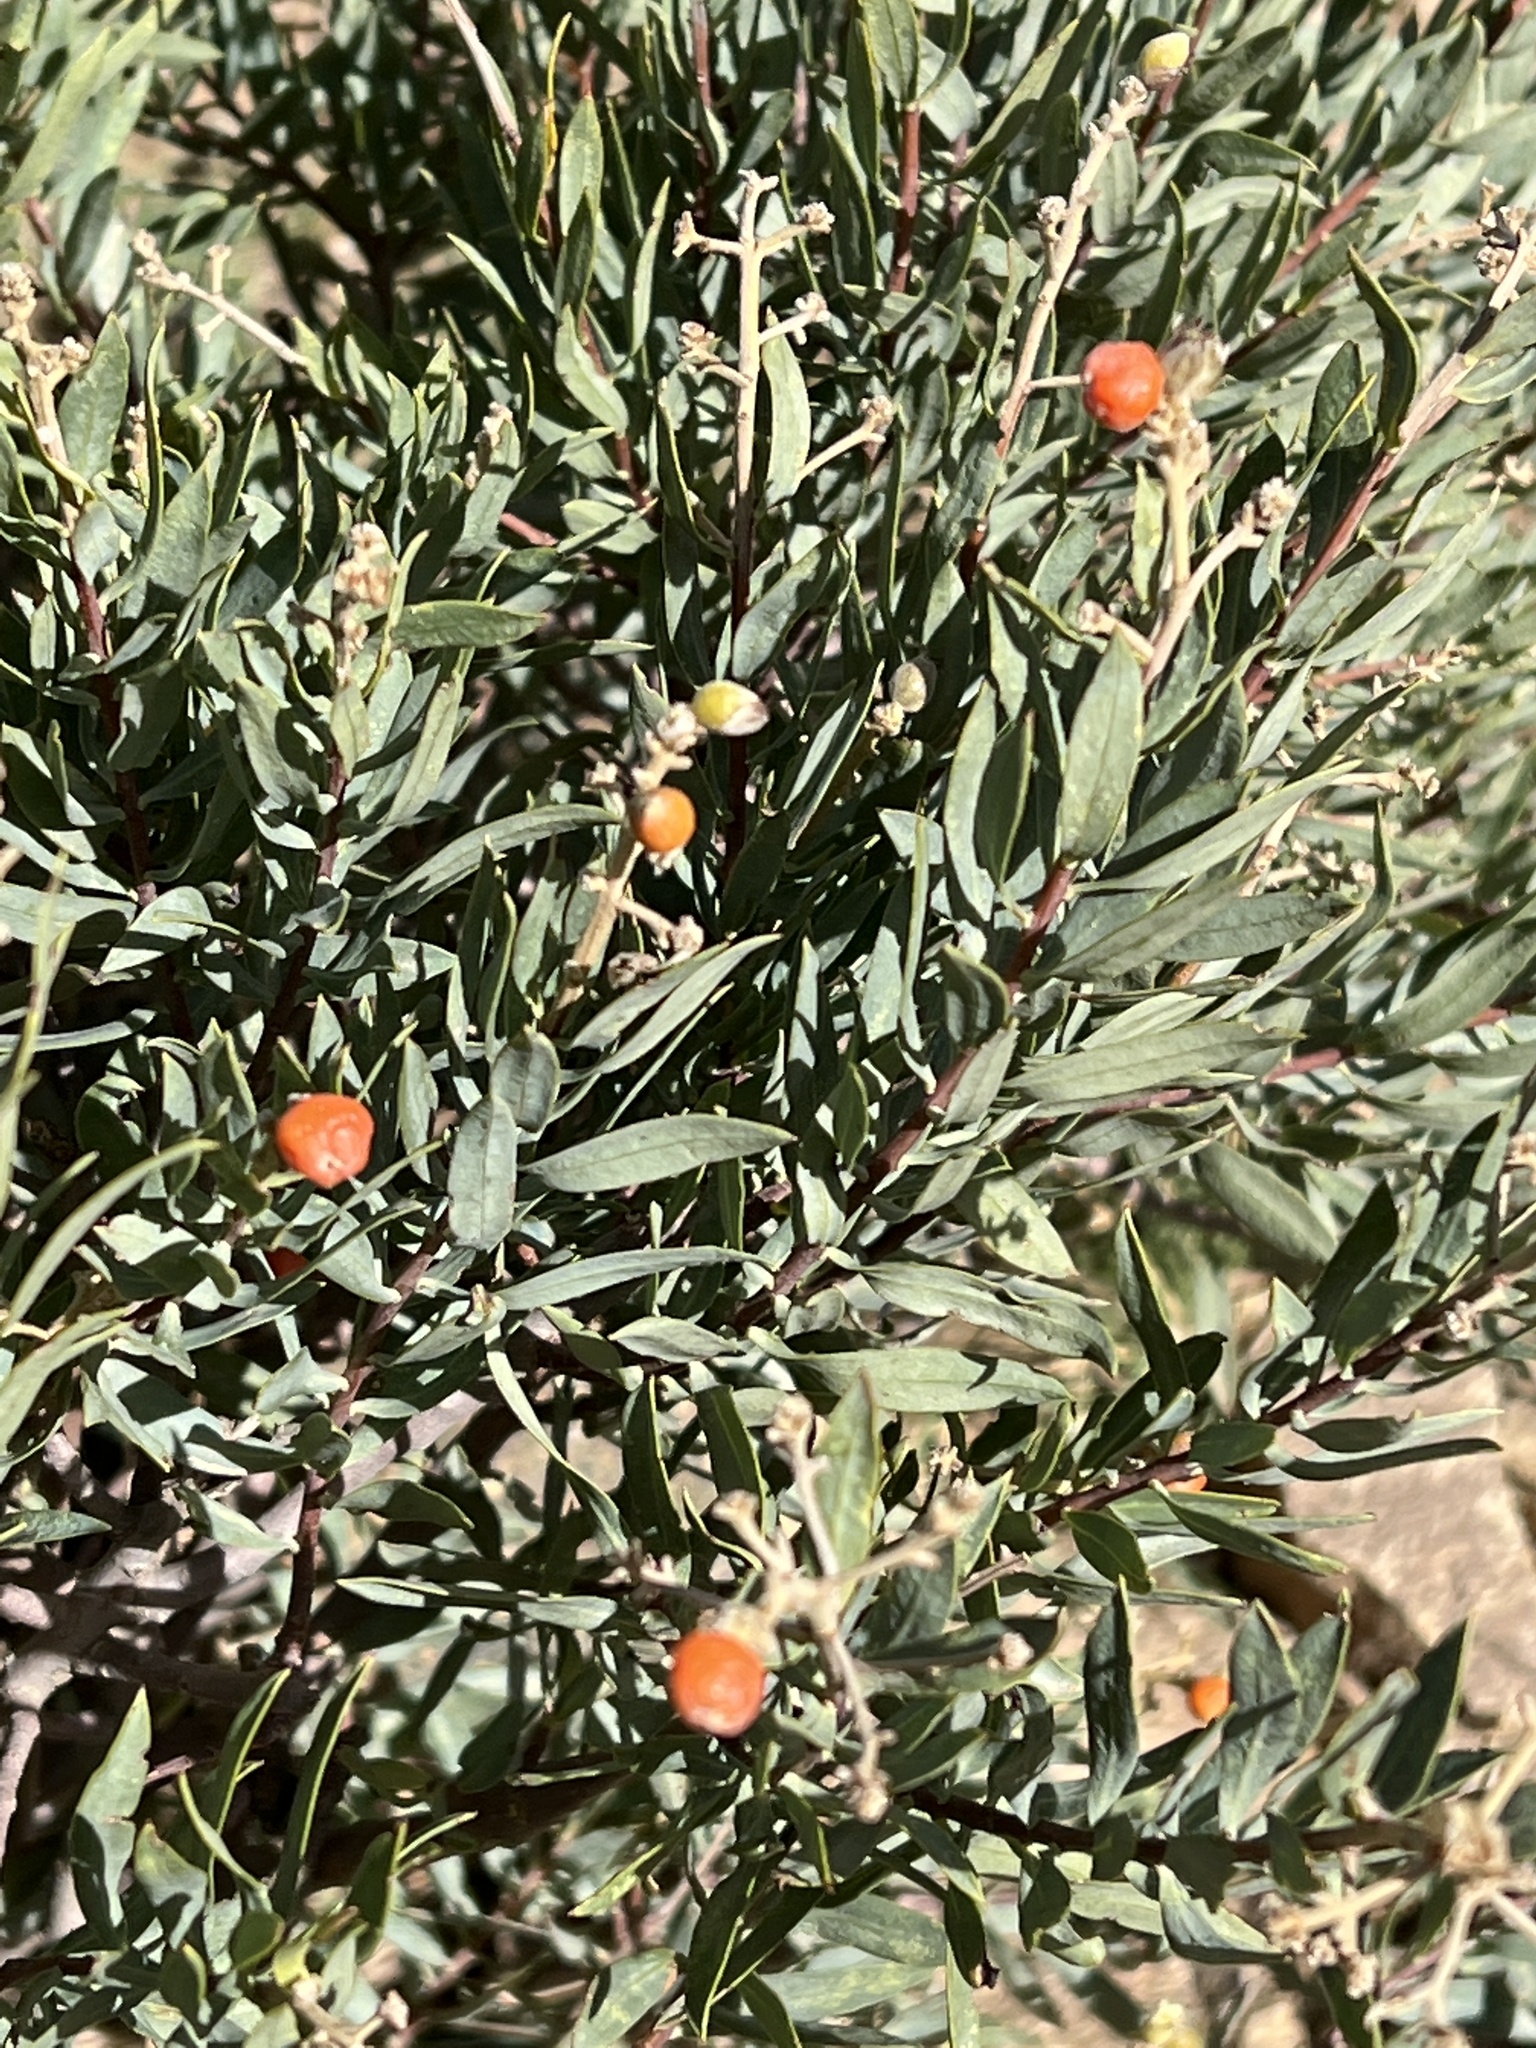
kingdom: Plantae
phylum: Tracheophyta
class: Magnoliopsida
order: Malvales
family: Thymelaeaceae
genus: Daphne
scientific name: Daphne gnidium
